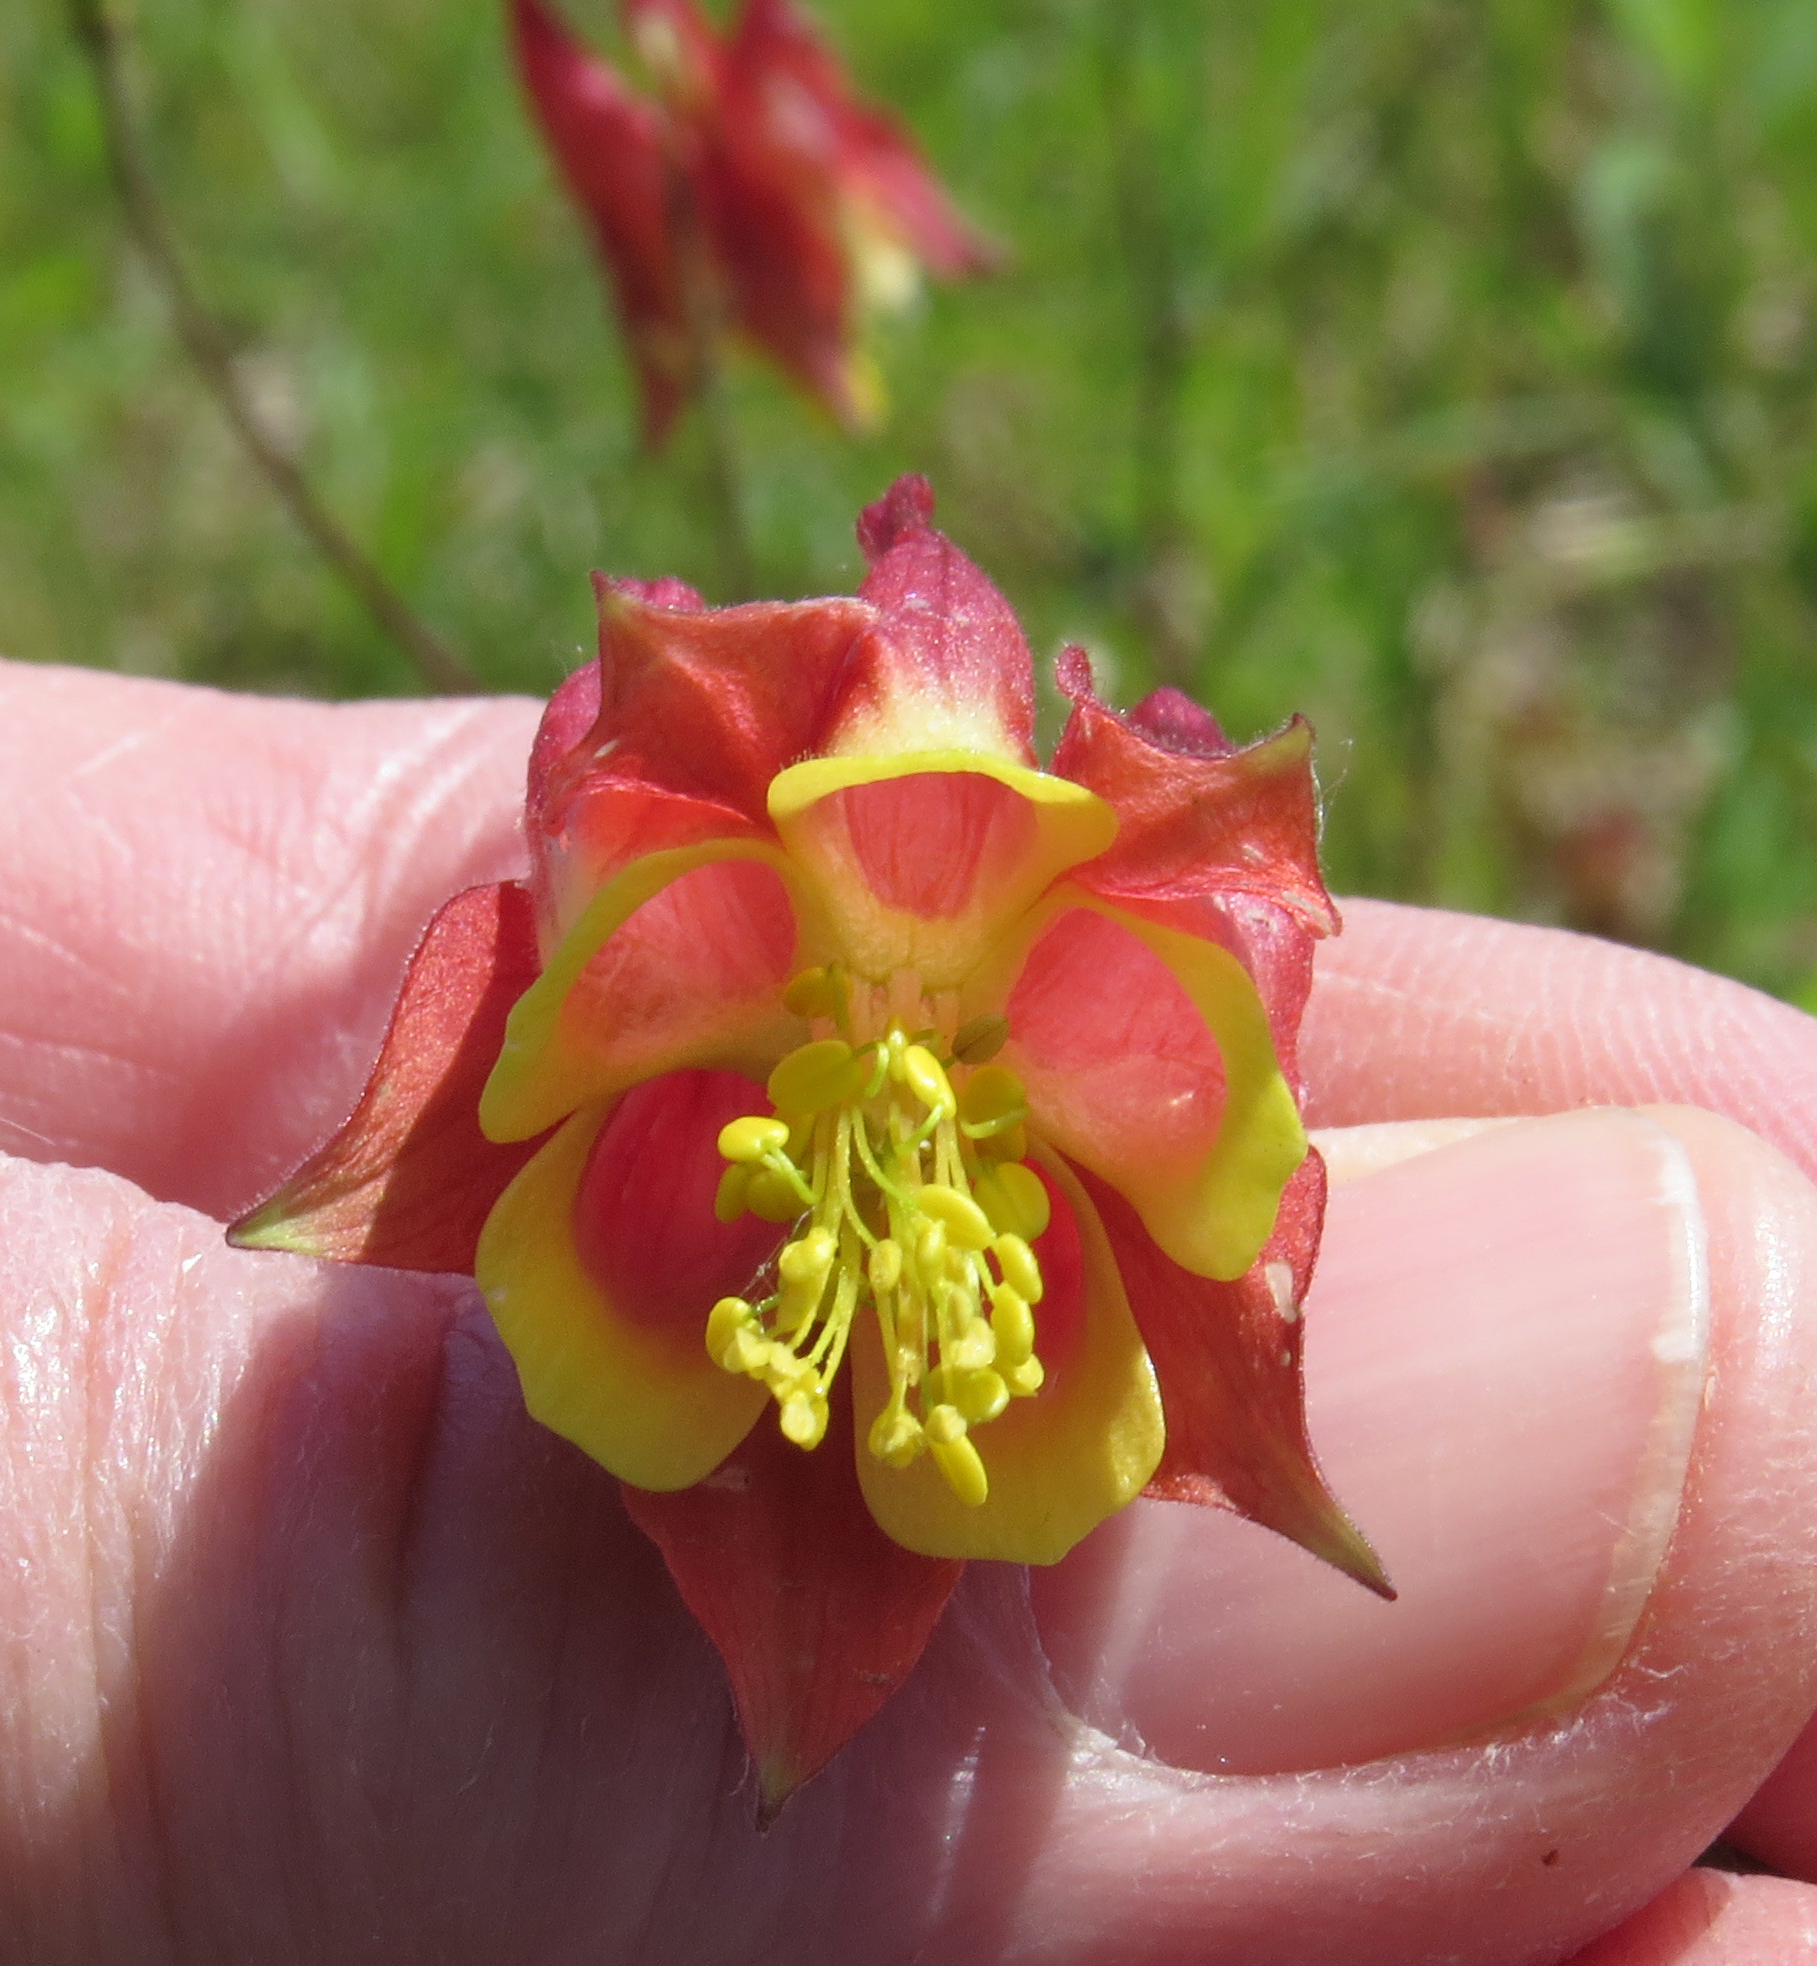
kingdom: Plantae
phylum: Tracheophyta
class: Magnoliopsida
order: Ranunculales
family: Ranunculaceae
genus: Aquilegia
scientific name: Aquilegia canadensis
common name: American columbine
